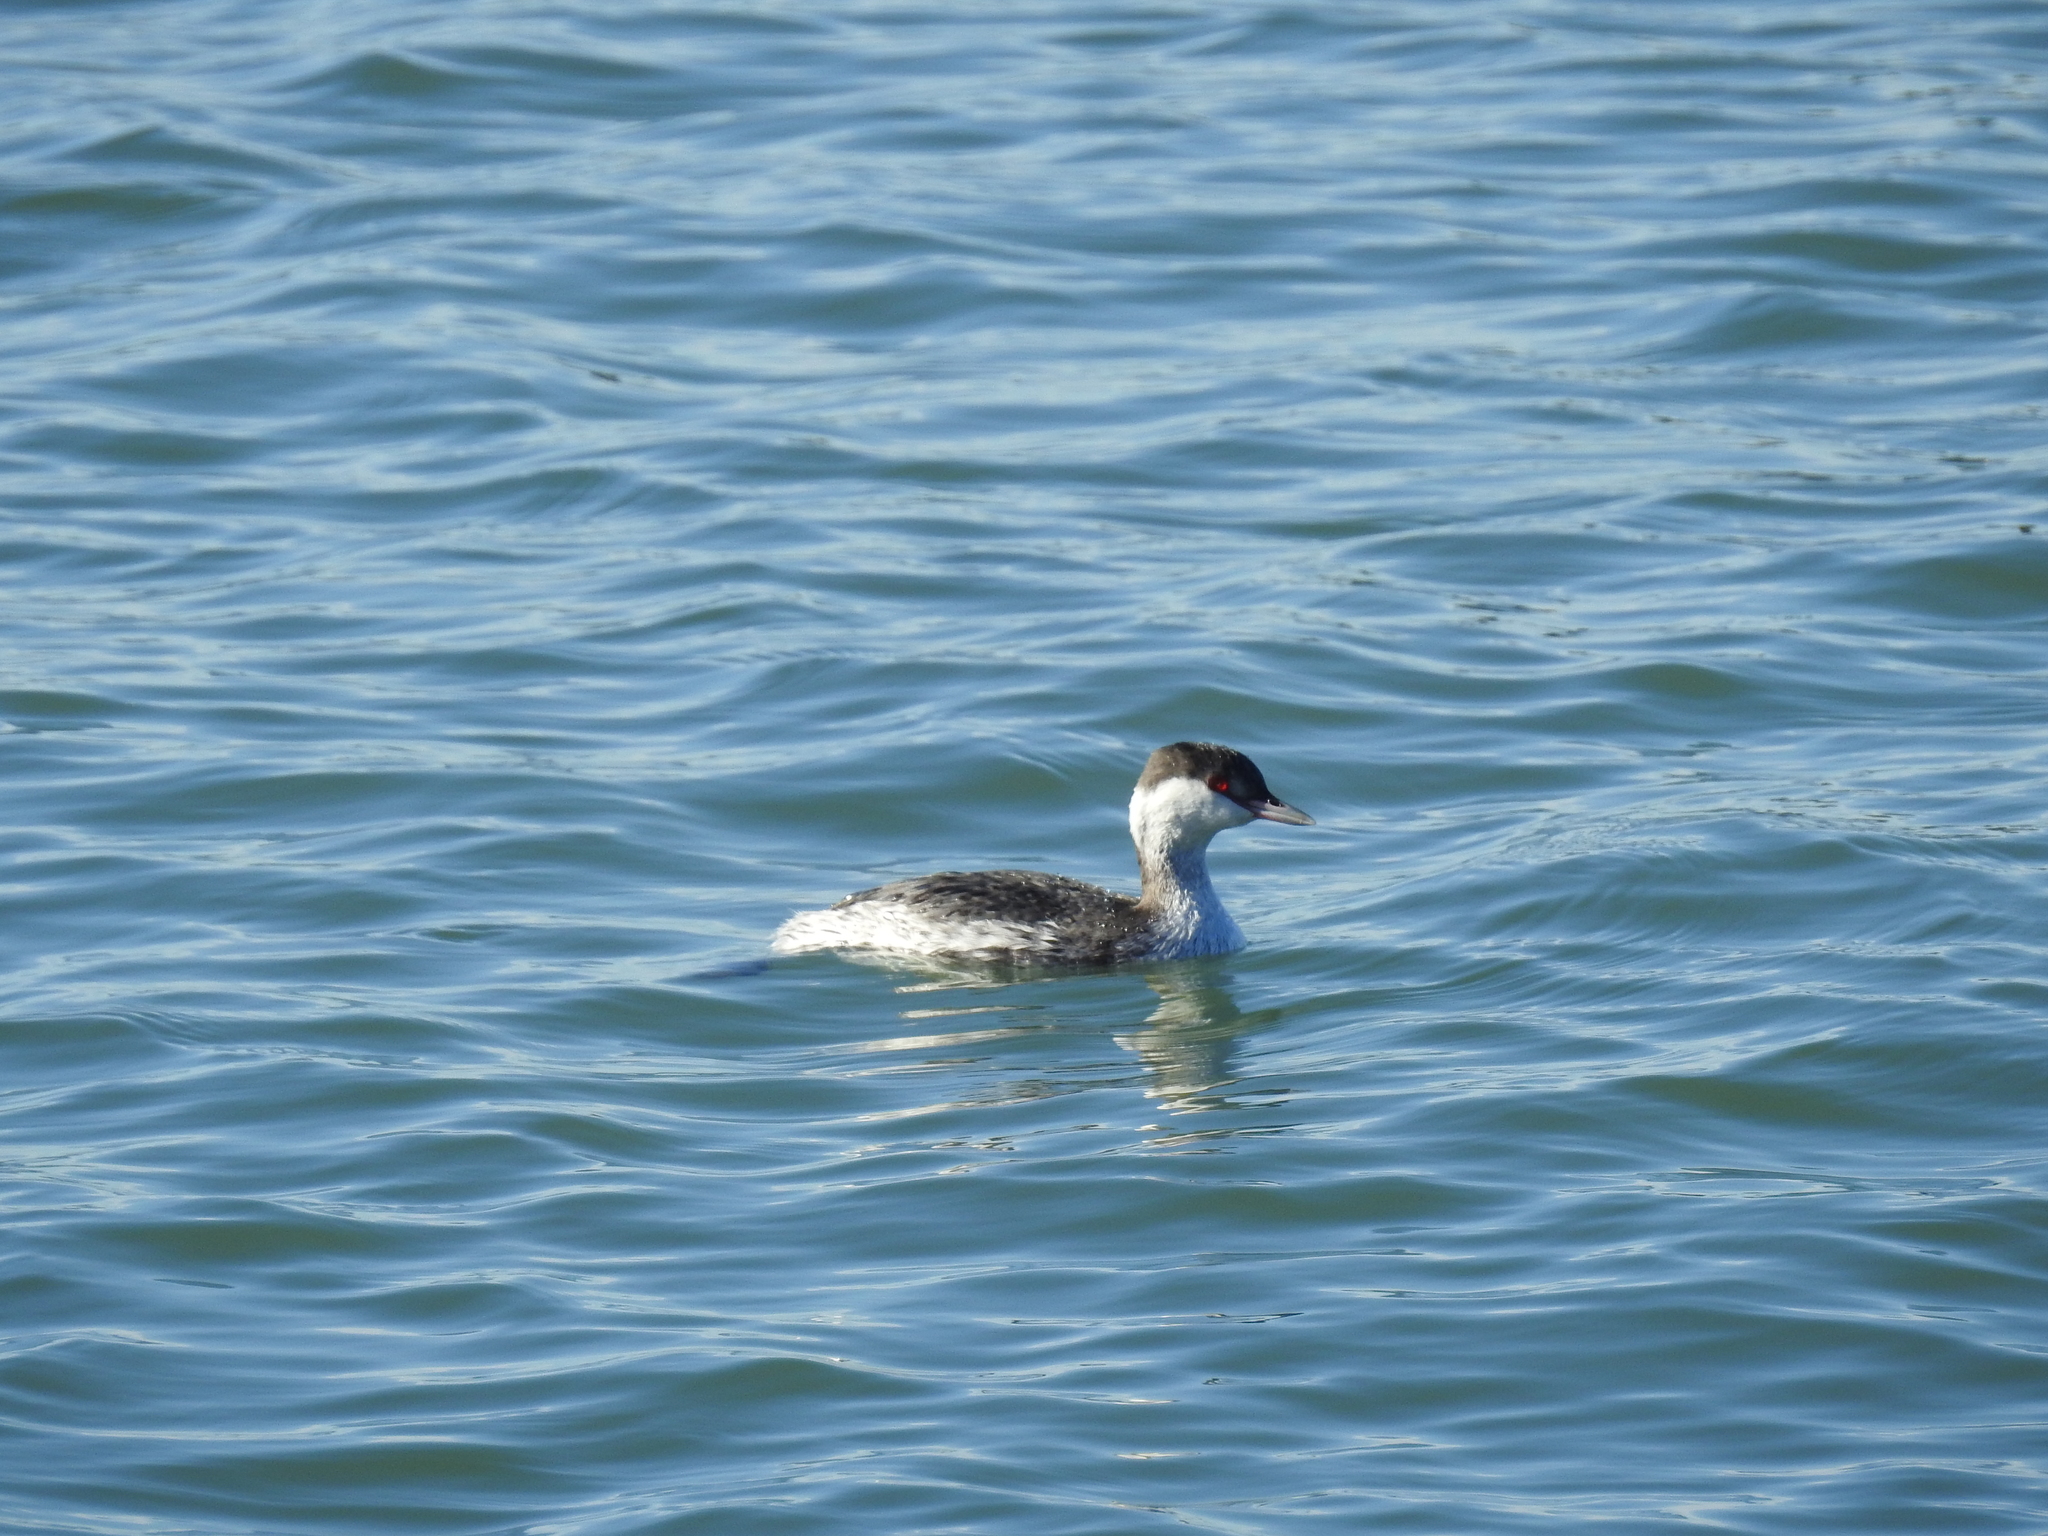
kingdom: Animalia
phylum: Chordata
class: Aves
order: Podicipediformes
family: Podicipedidae
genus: Podiceps
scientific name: Podiceps auritus
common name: Horned grebe
